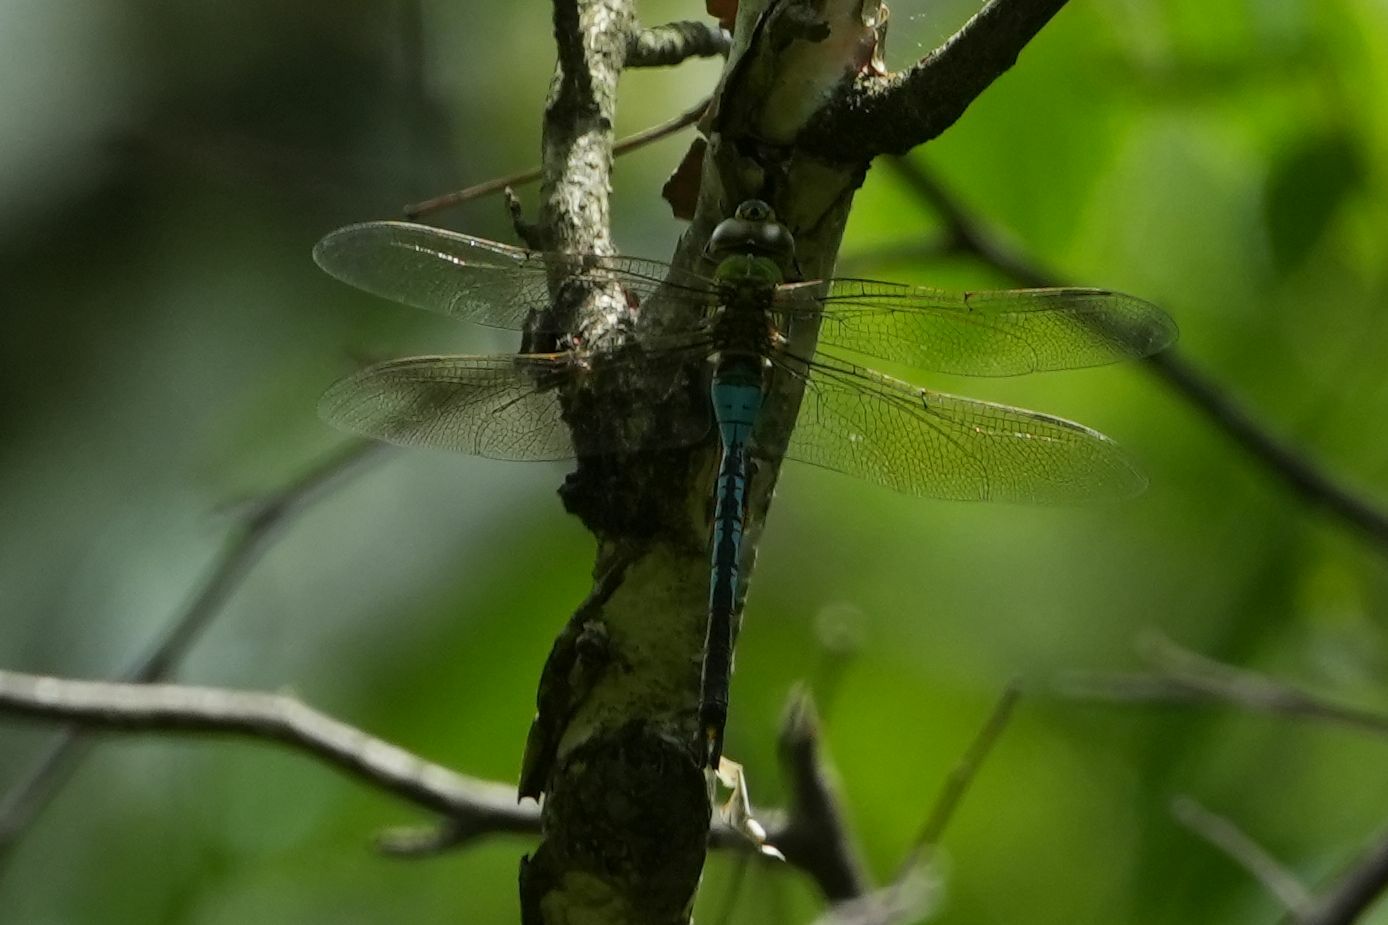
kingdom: Animalia
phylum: Arthropoda
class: Insecta
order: Odonata
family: Aeshnidae
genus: Anax
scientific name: Anax junius
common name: Common green darner
